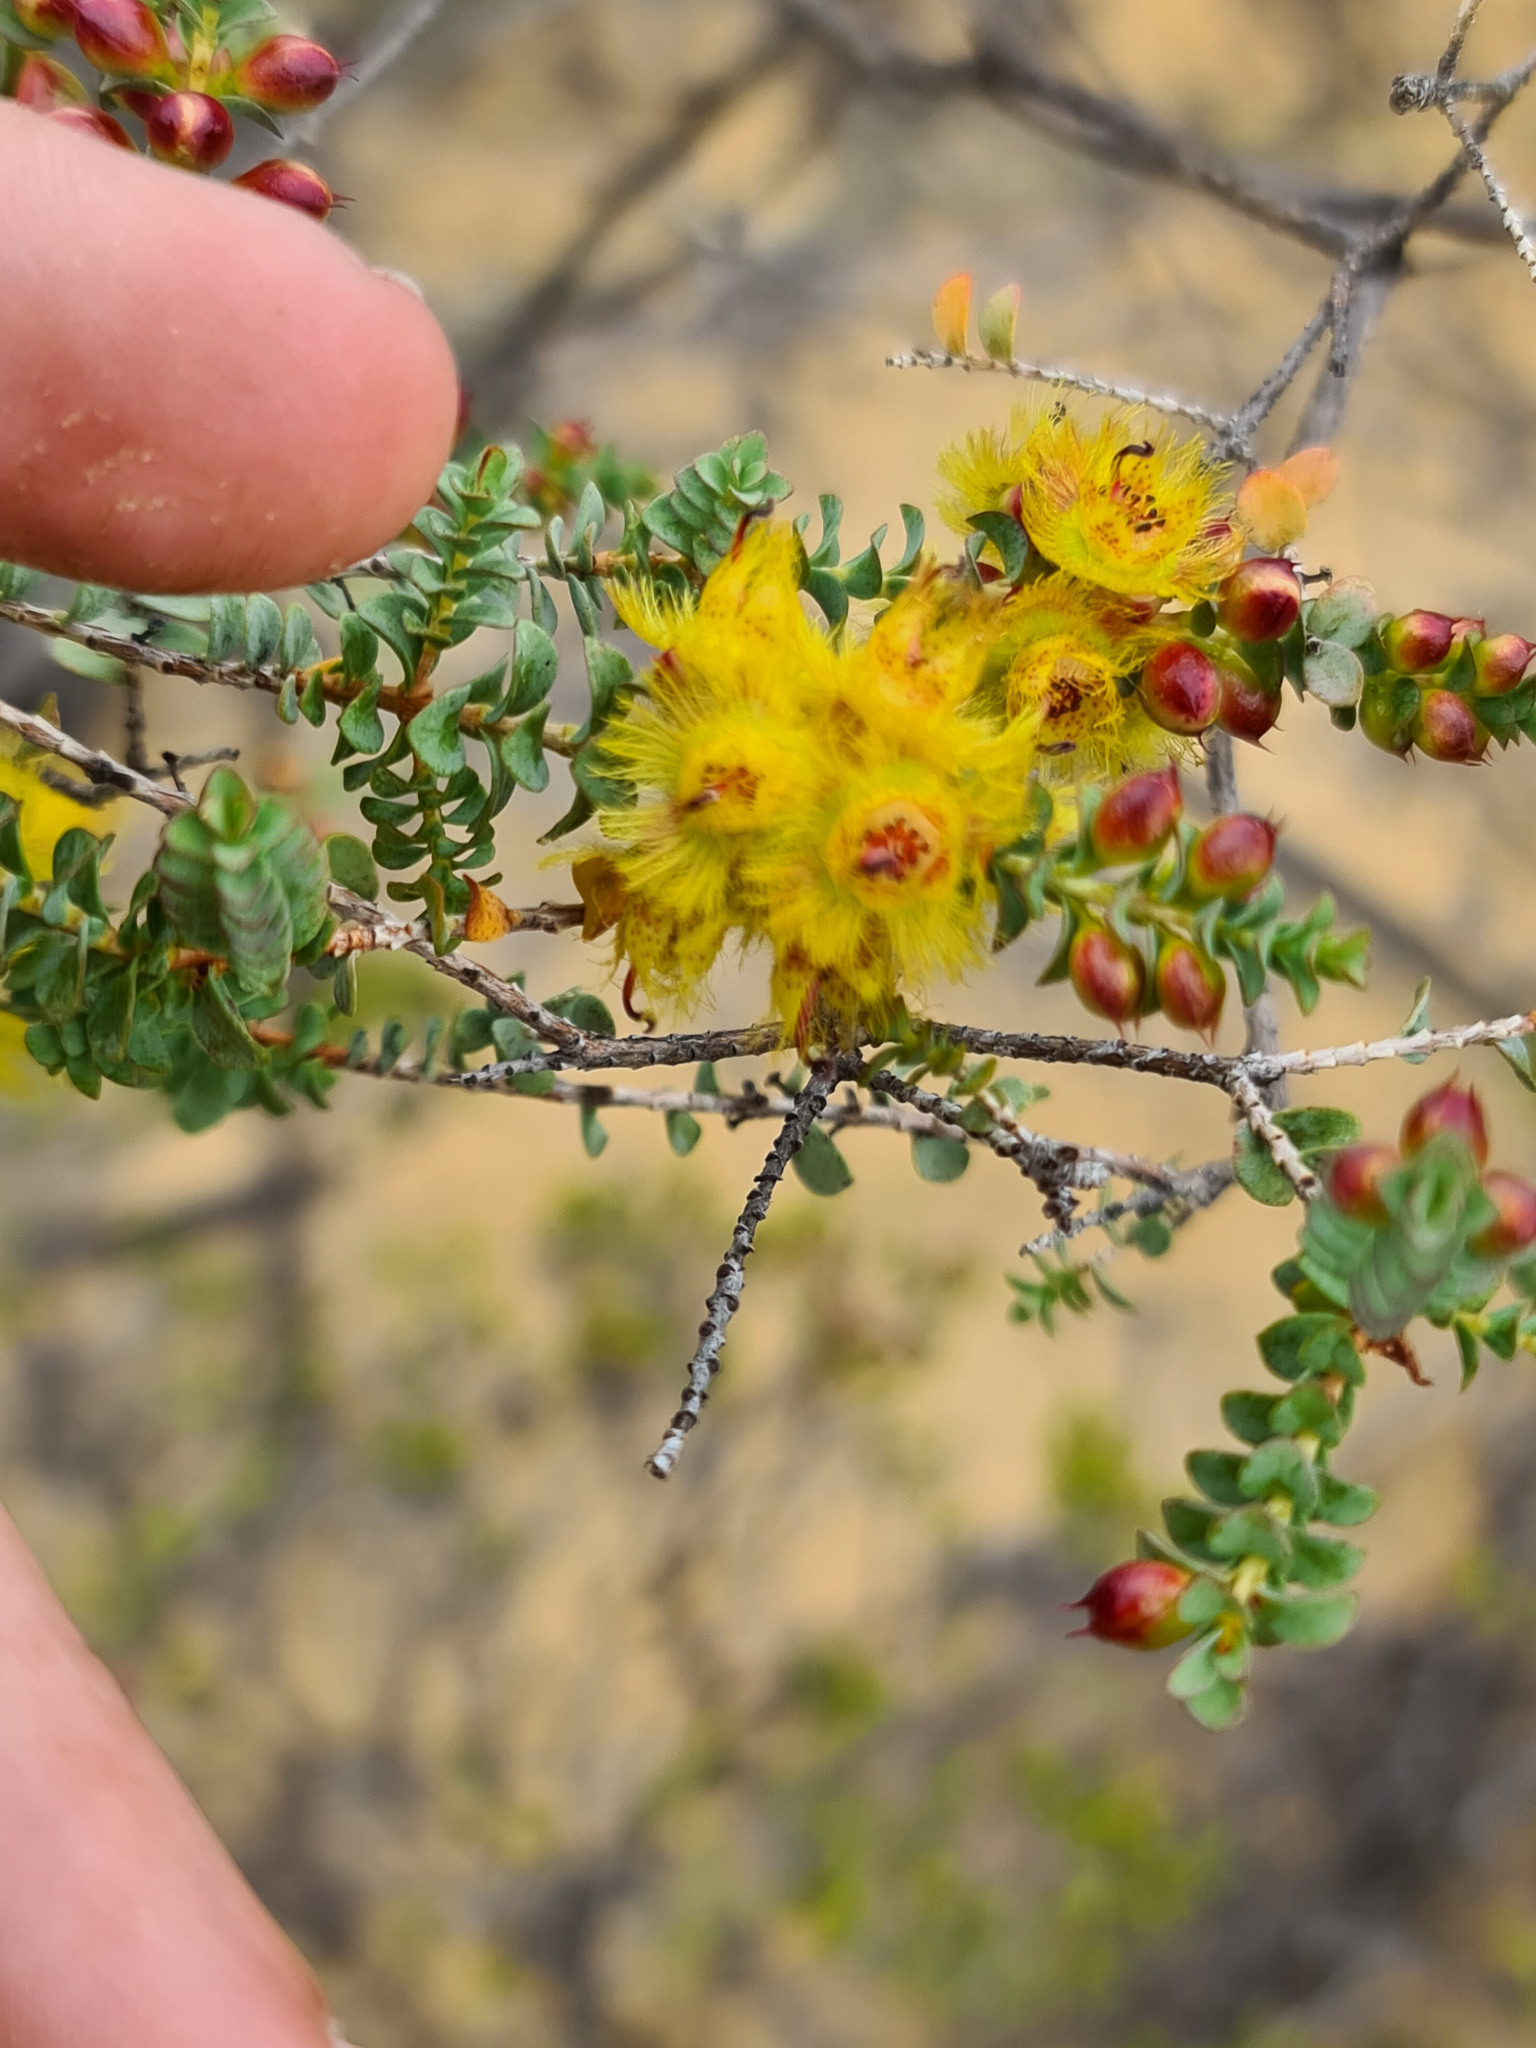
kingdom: Plantae
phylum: Tracheophyta
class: Magnoliopsida
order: Myrtales
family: Myrtaceae
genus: Verticordia
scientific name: Verticordia chrysostachys
